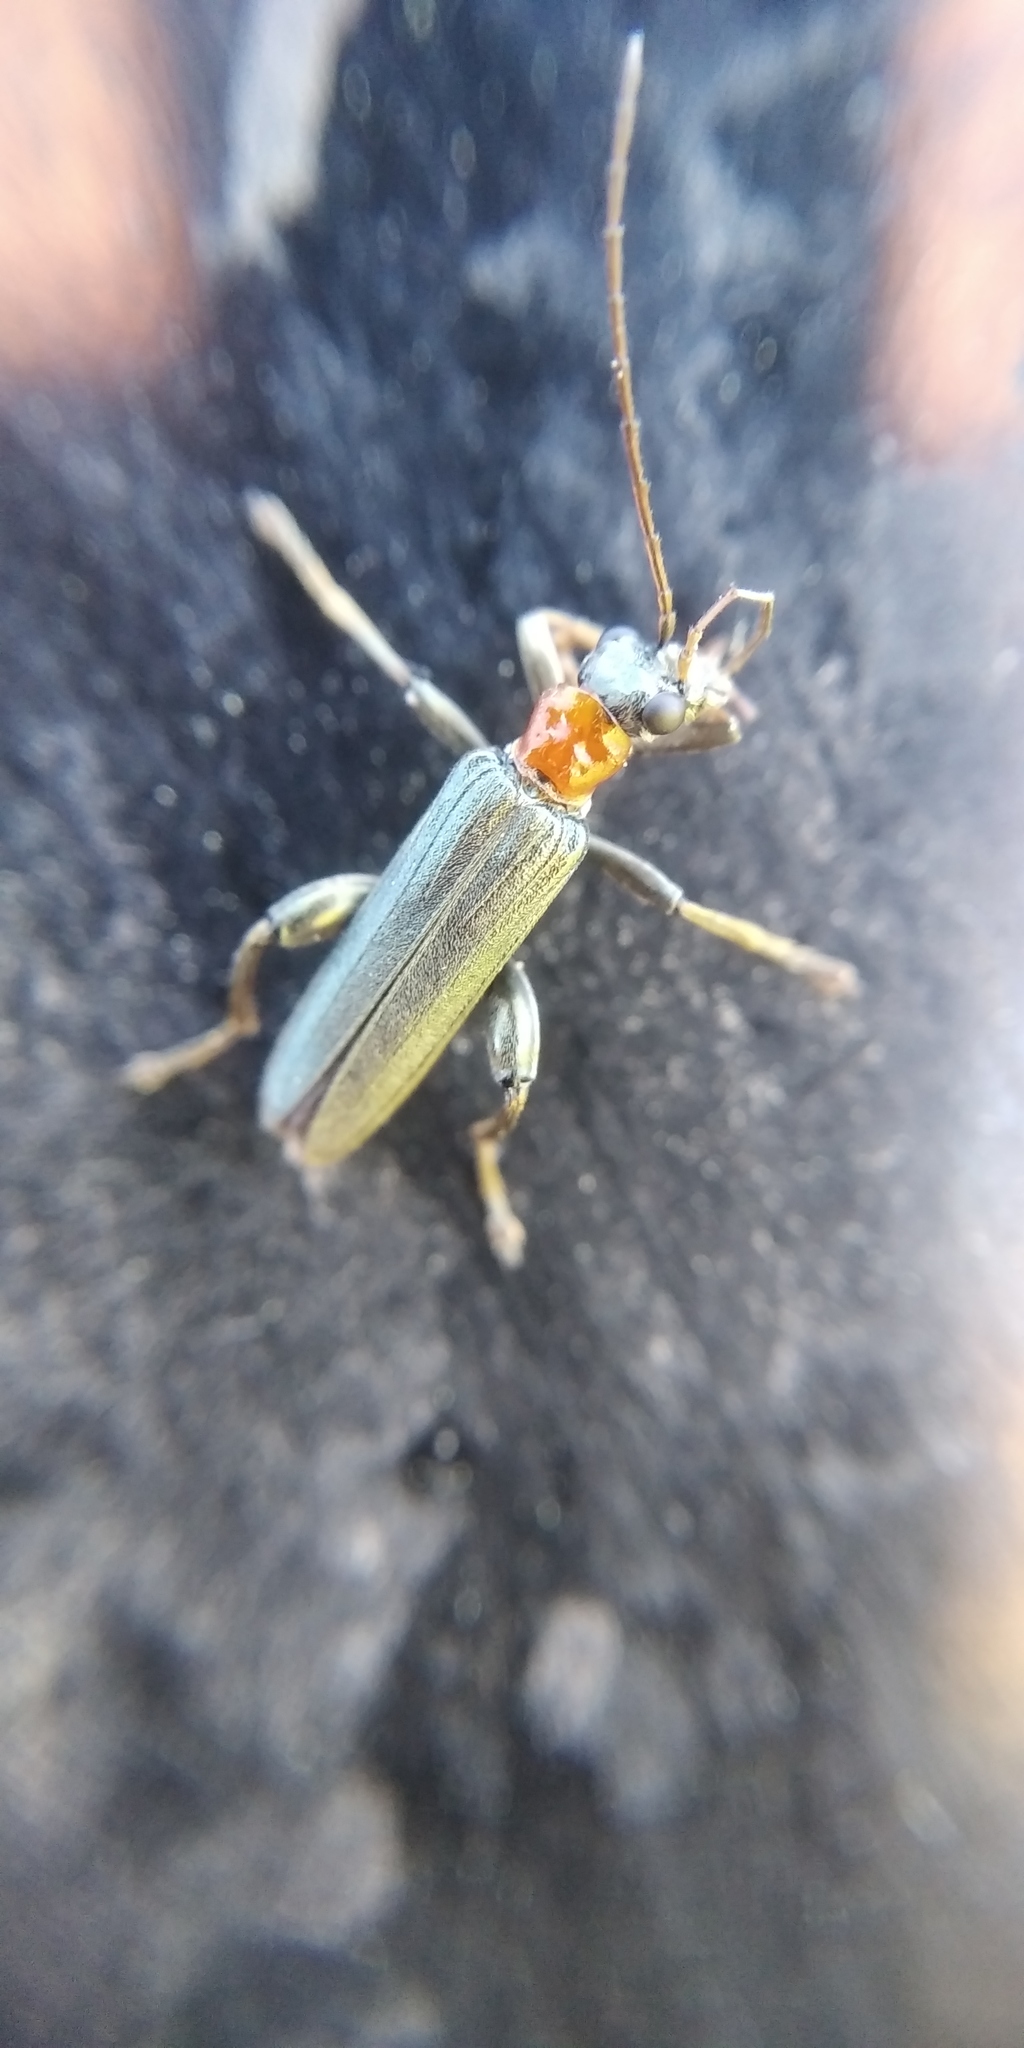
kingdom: Animalia
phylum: Arthropoda
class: Insecta
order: Coleoptera
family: Oedemeridae
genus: Oedemera
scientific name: Oedemera croceicollis
